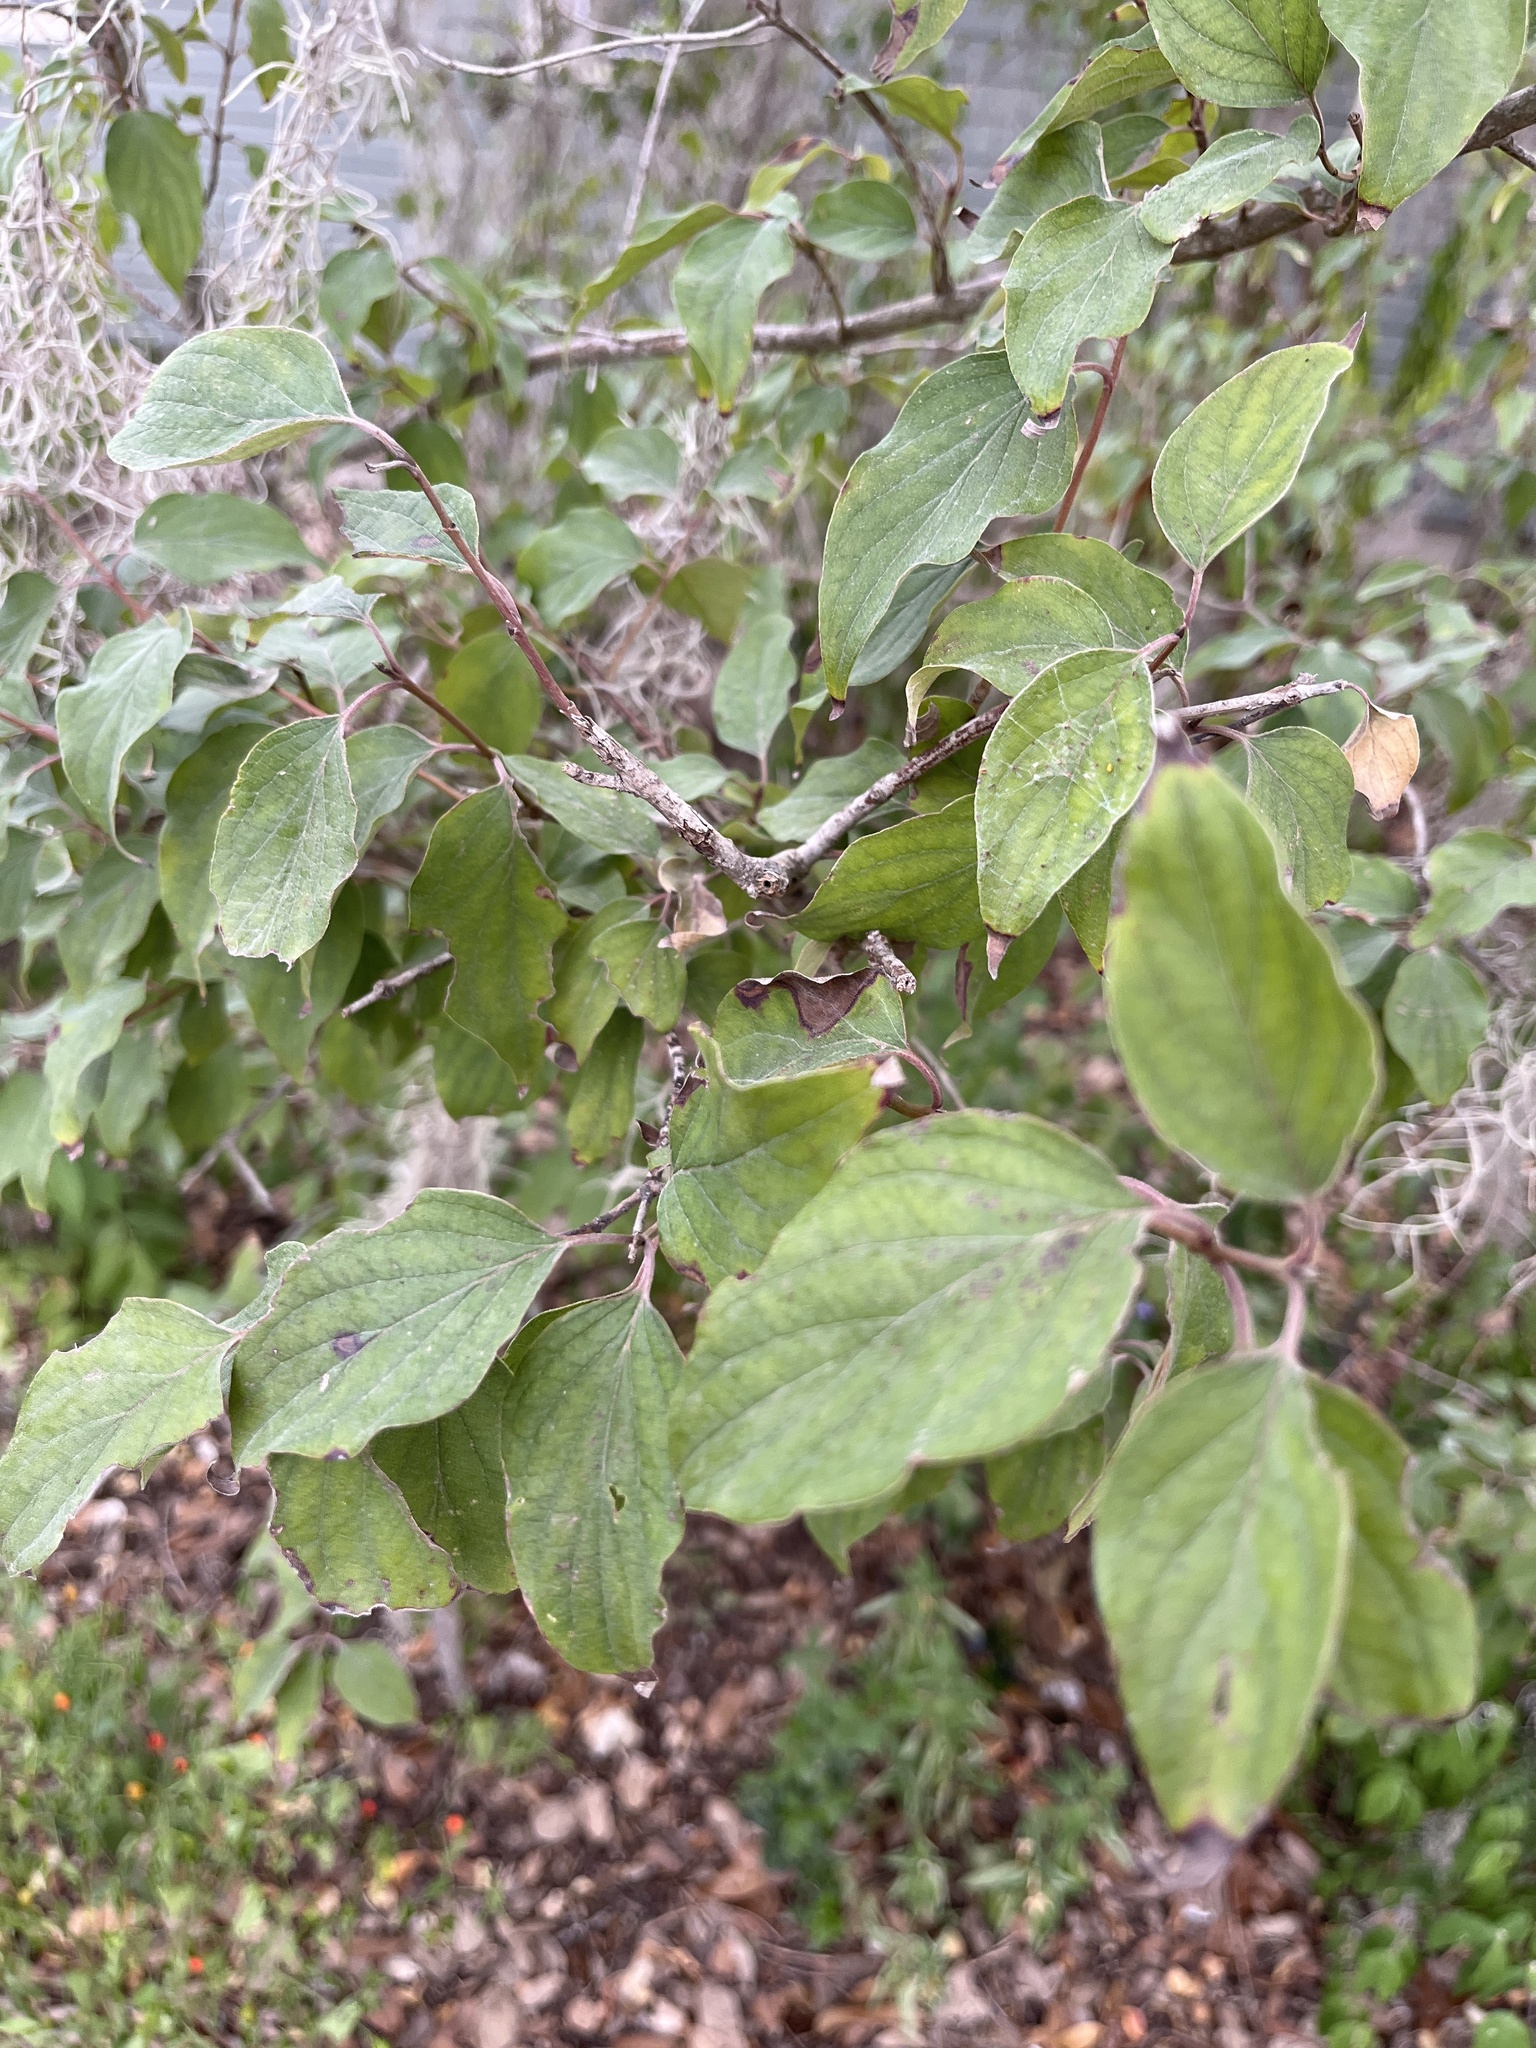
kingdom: Plantae
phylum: Tracheophyta
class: Magnoliopsida
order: Cornales
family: Cornaceae
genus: Cornus
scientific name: Cornus drummondii
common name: Rough-leaf dogwood
